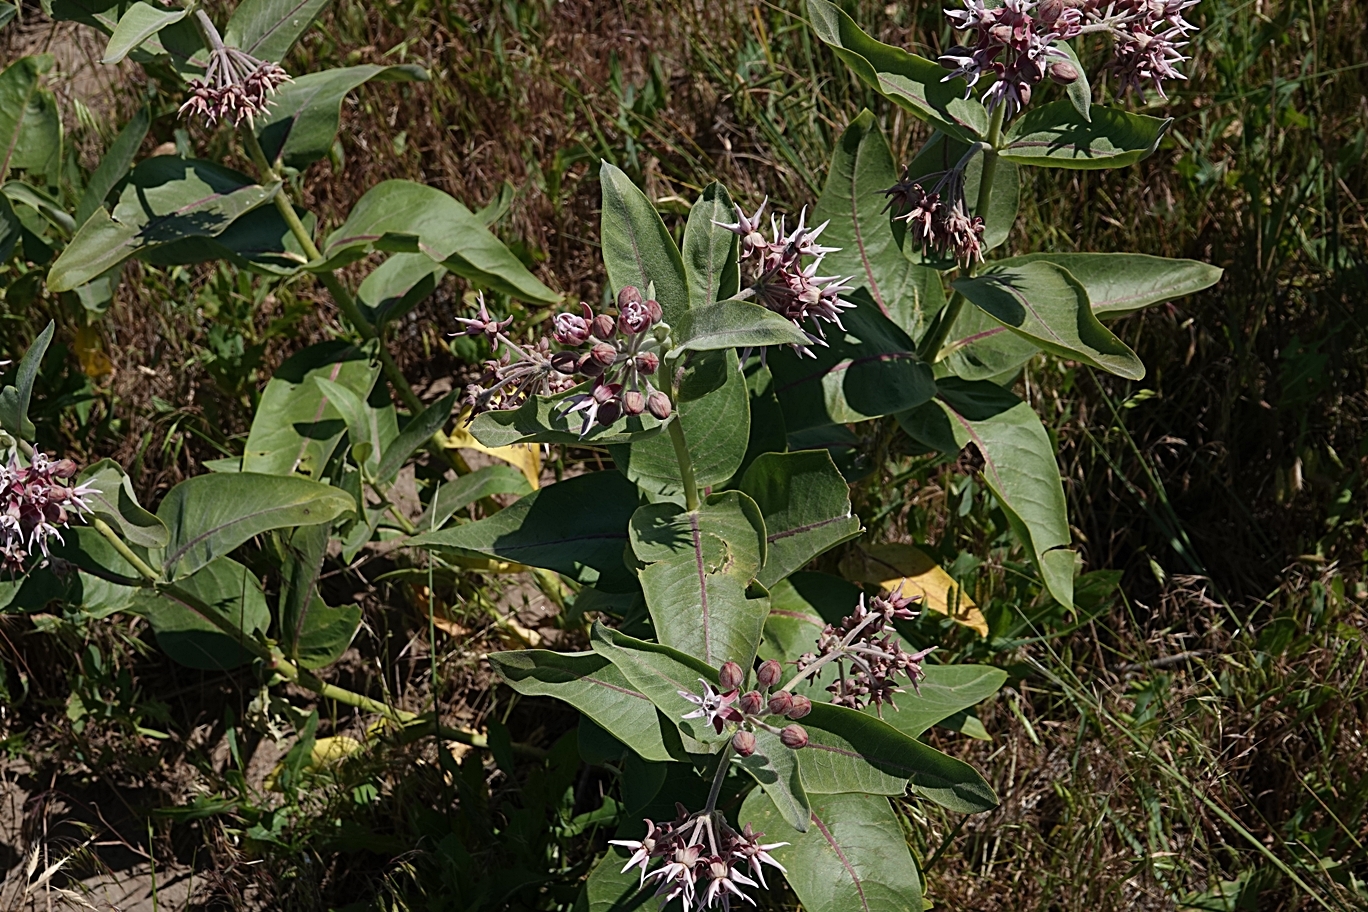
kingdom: Plantae
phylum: Tracheophyta
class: Magnoliopsida
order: Gentianales
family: Apocynaceae
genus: Asclepias
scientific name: Asclepias speciosa
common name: Showy milkweed
